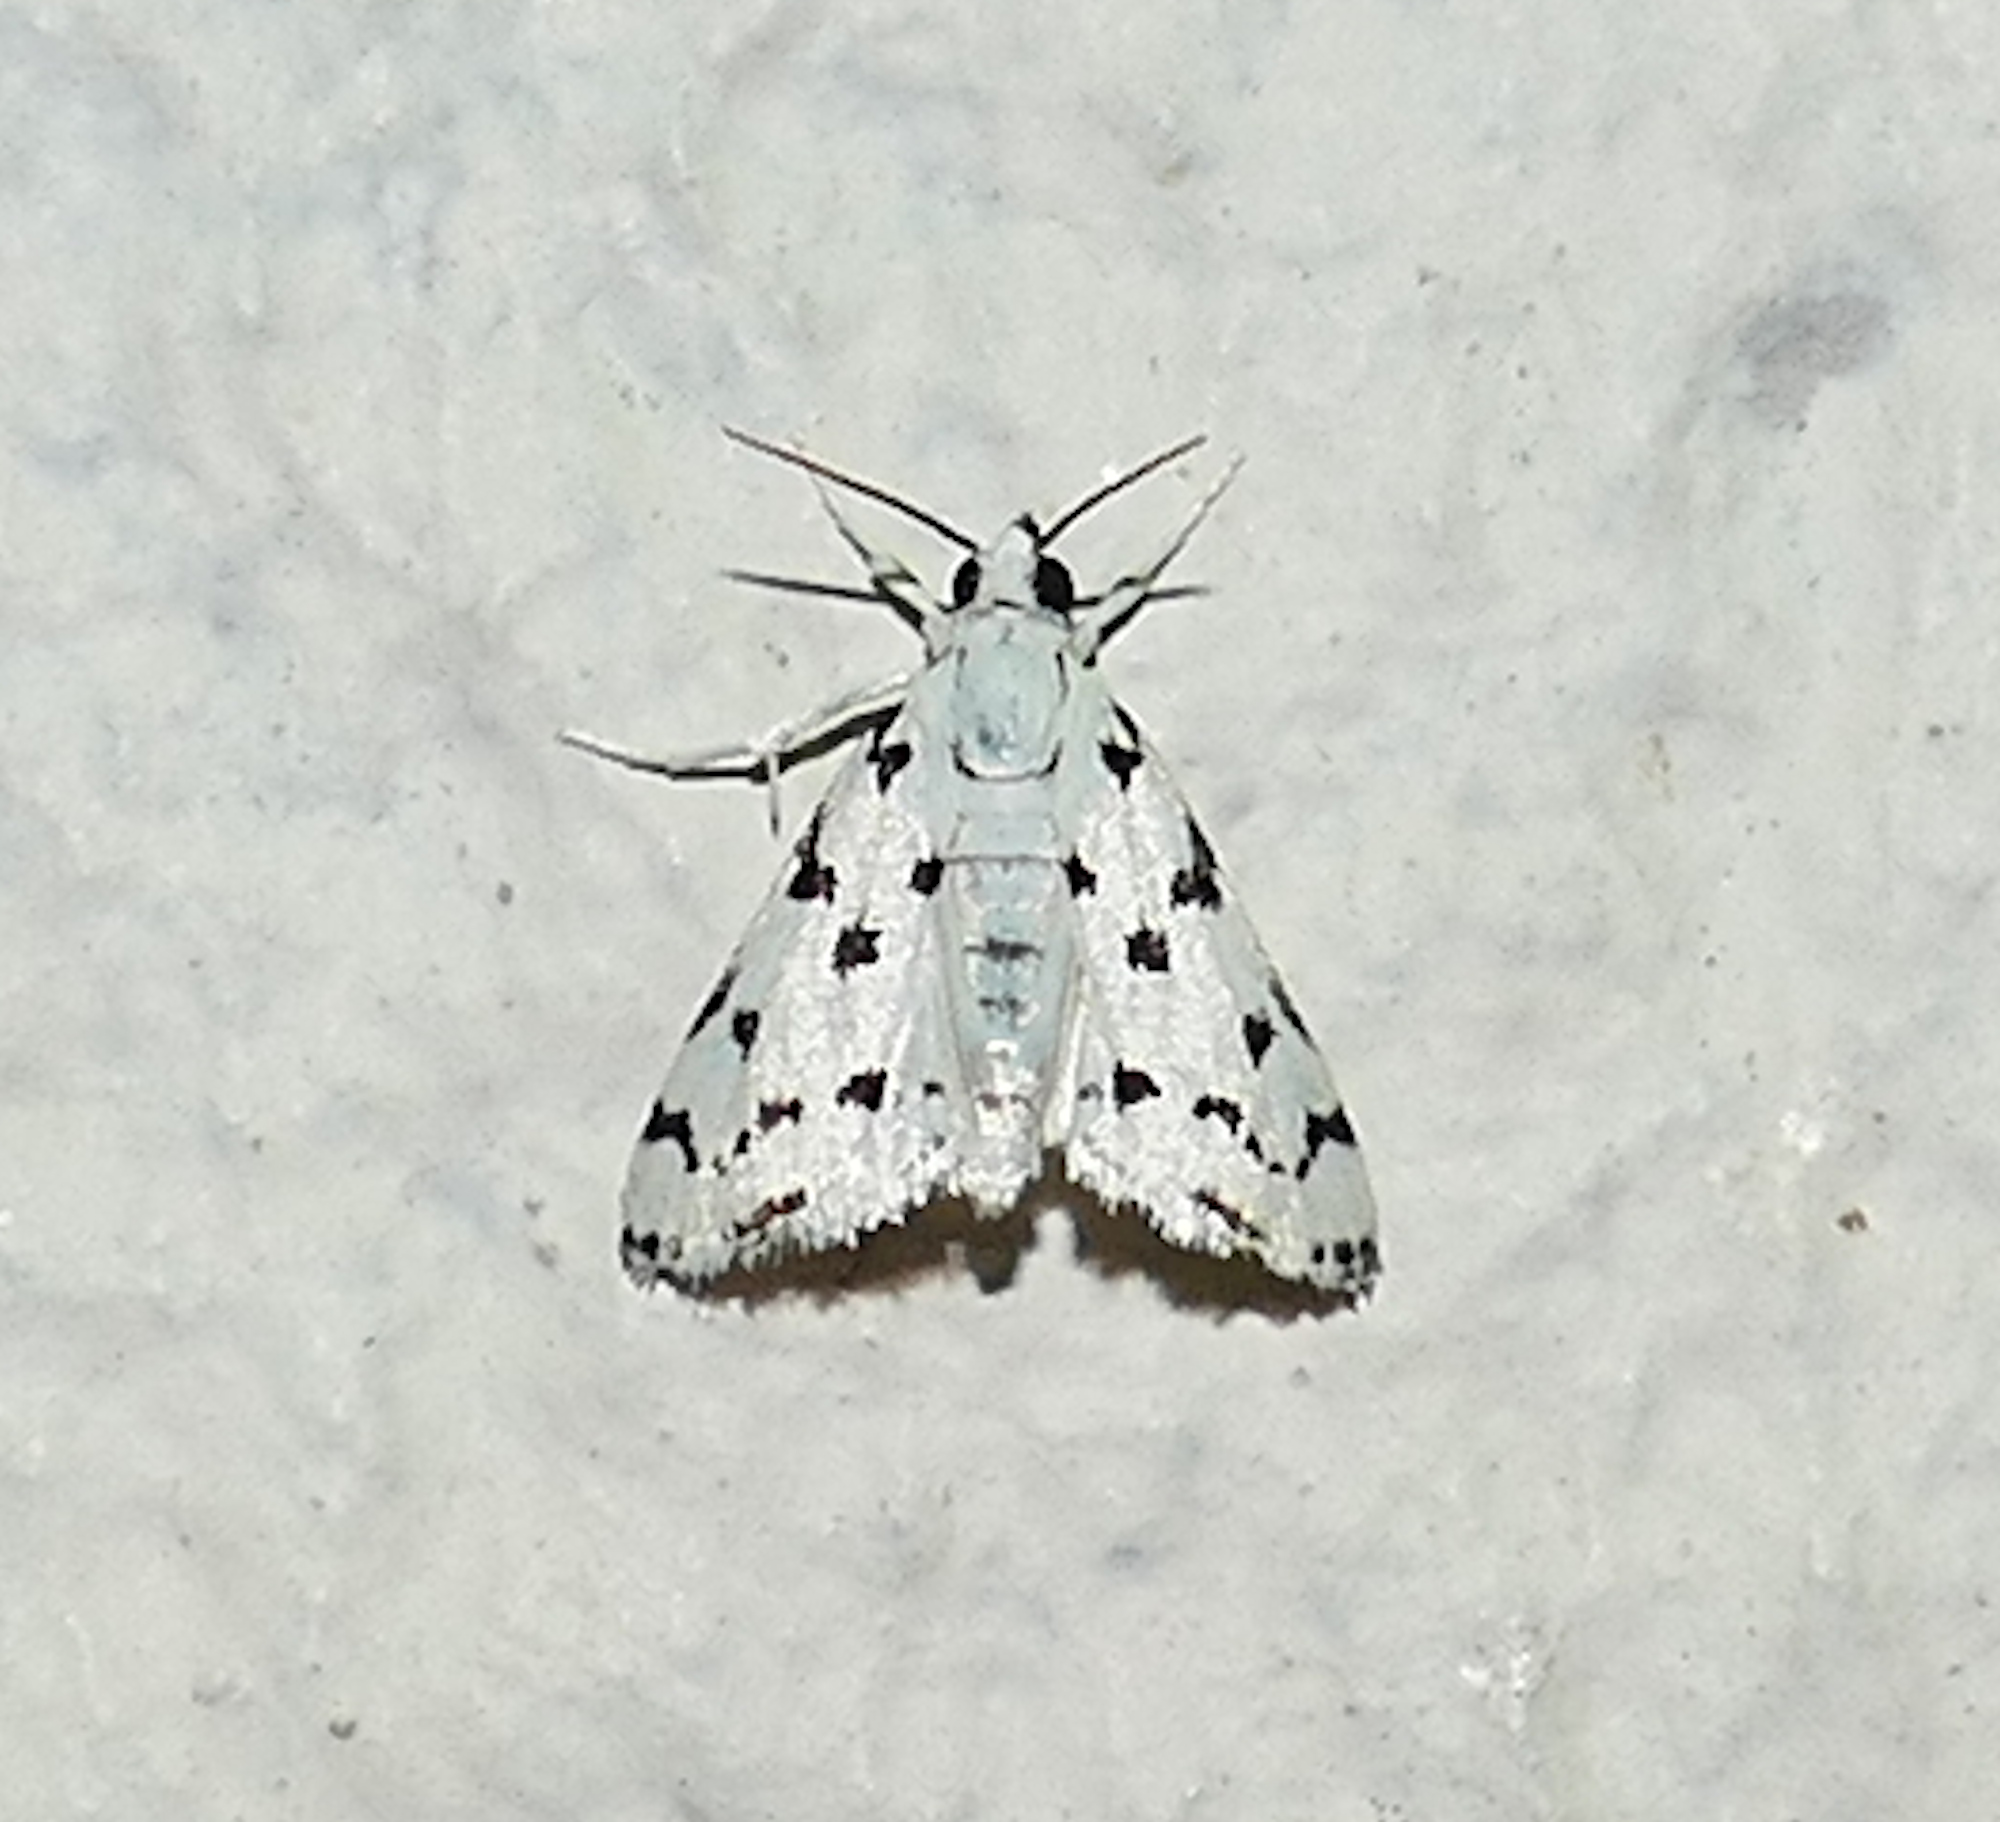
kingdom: Animalia
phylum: Arthropoda
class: Insecta
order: Lepidoptera
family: Crambidae
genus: Eustixia
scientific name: Eustixia pupula
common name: American cabbage pearl
